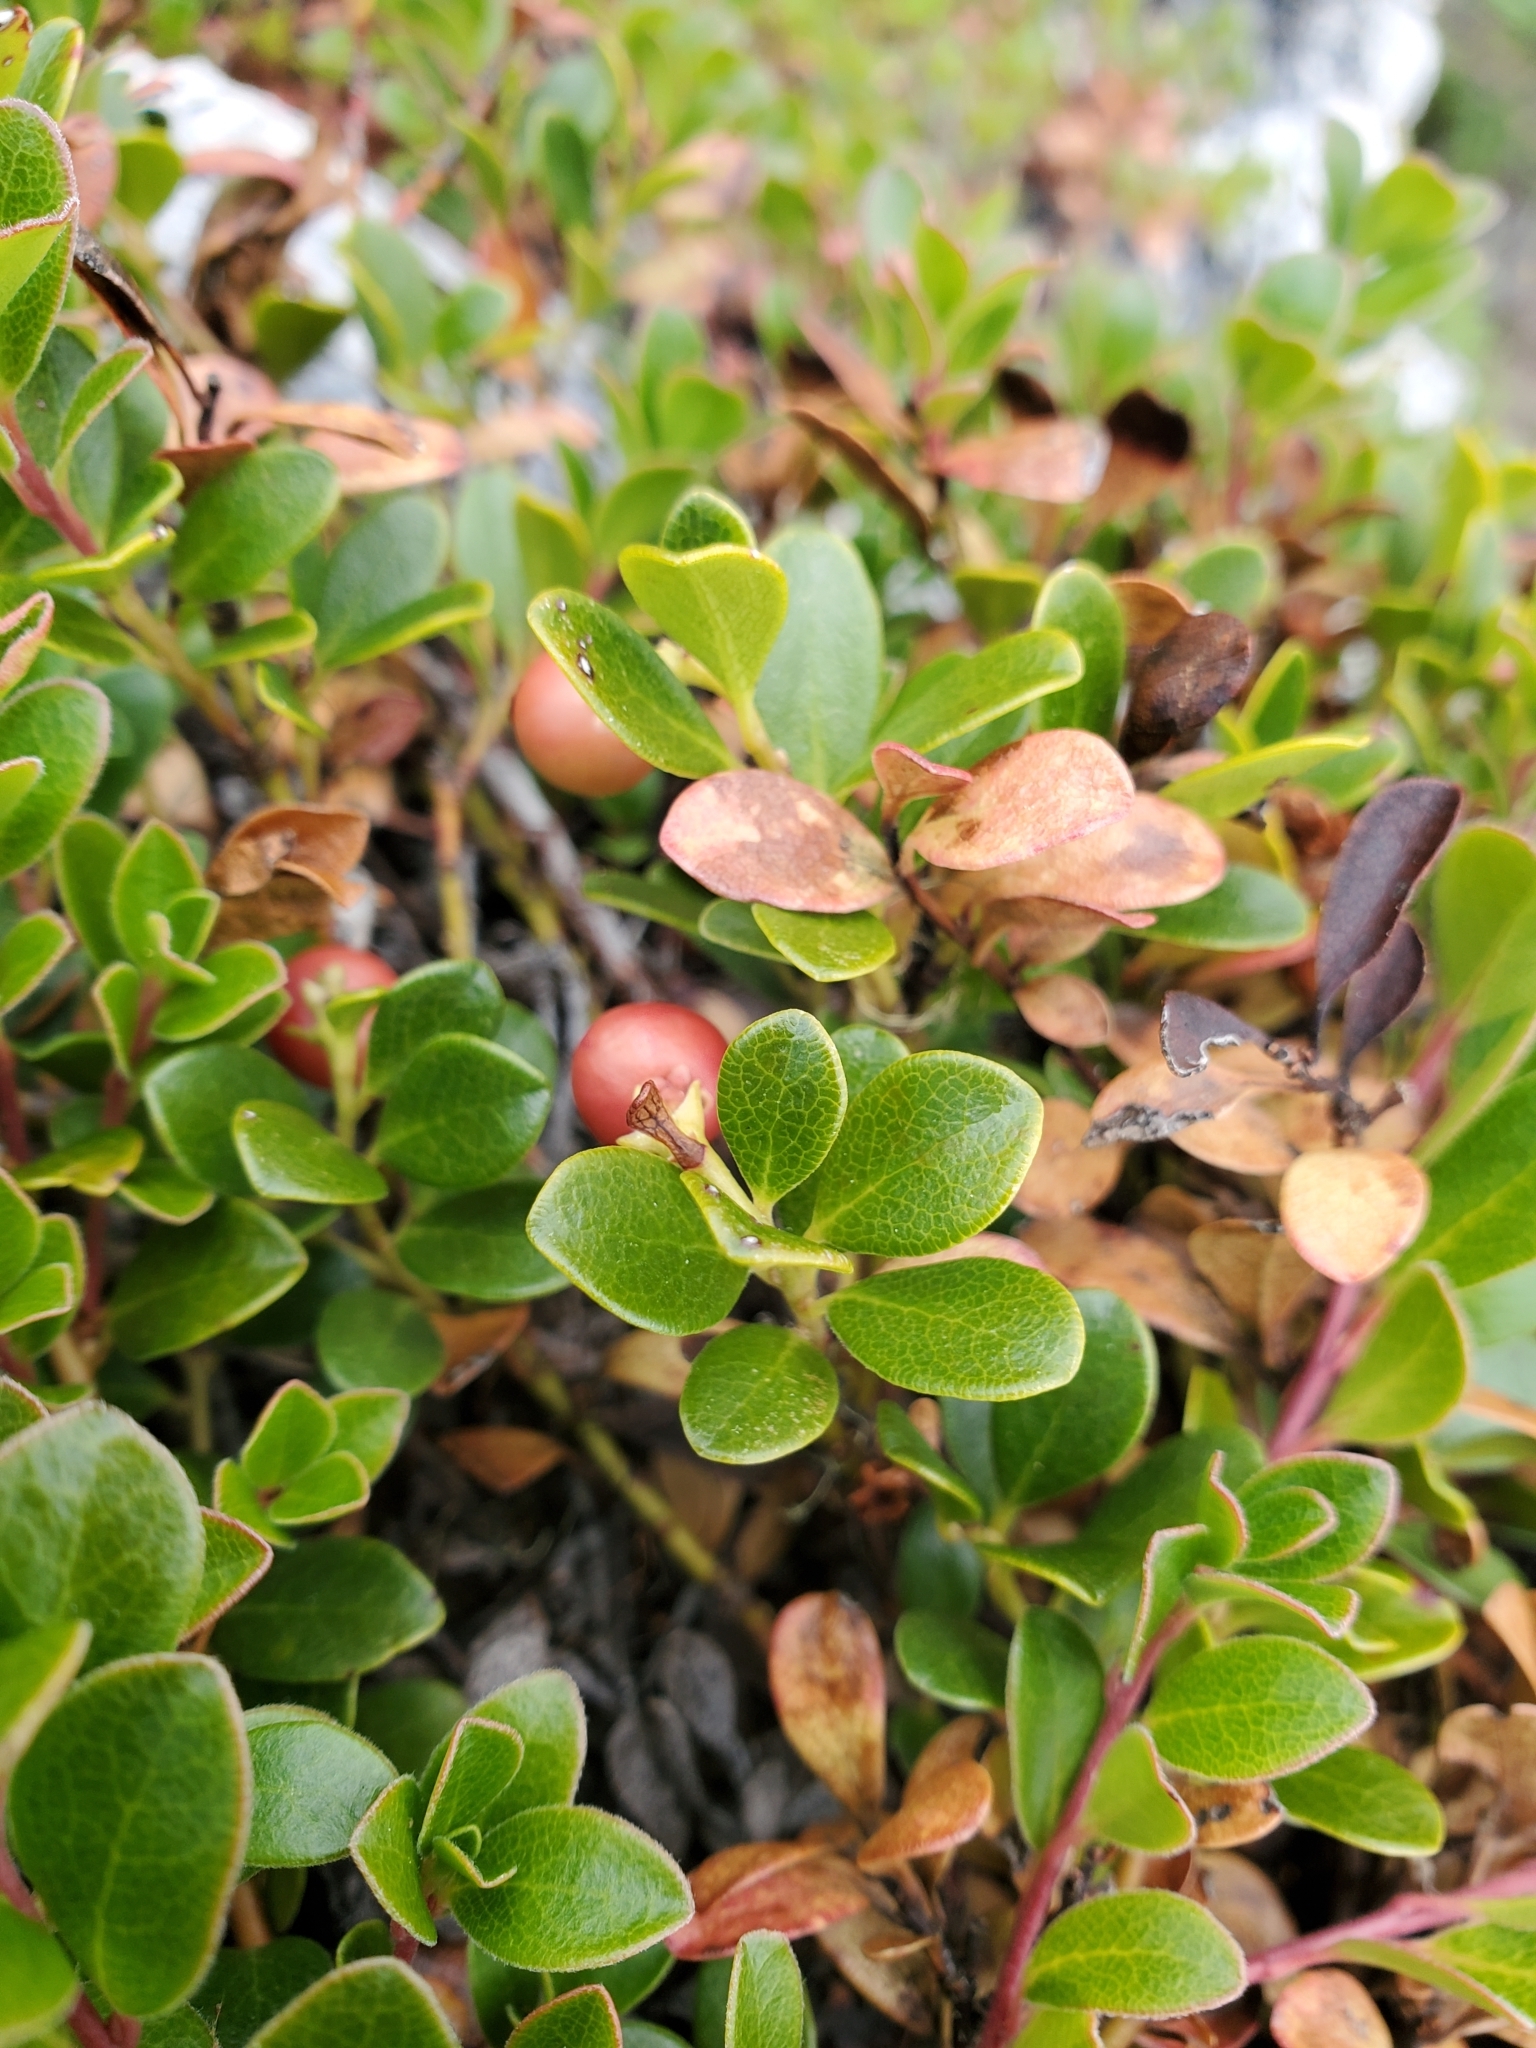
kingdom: Plantae
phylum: Tracheophyta
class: Magnoliopsida
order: Ericales
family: Ericaceae
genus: Arctostaphylos
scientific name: Arctostaphylos uva-ursi
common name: Bearberry
